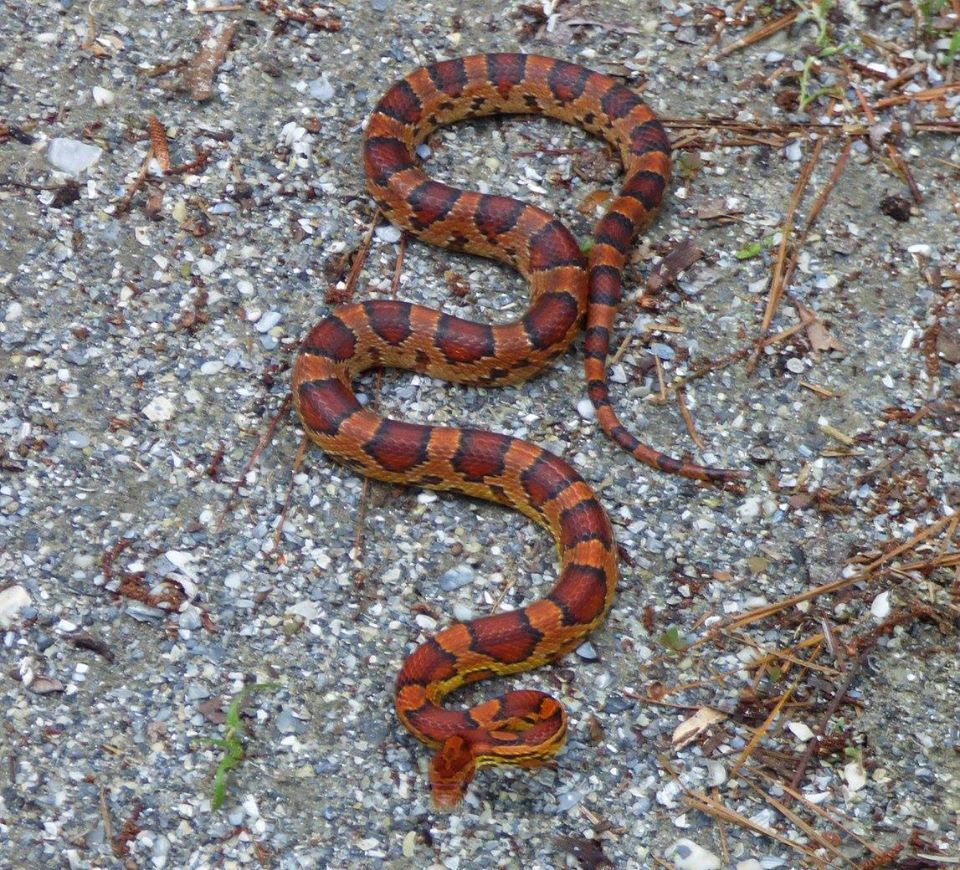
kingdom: Animalia
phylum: Chordata
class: Squamata
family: Colubridae
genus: Pantherophis
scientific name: Pantherophis guttatus
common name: Red cornsnake
